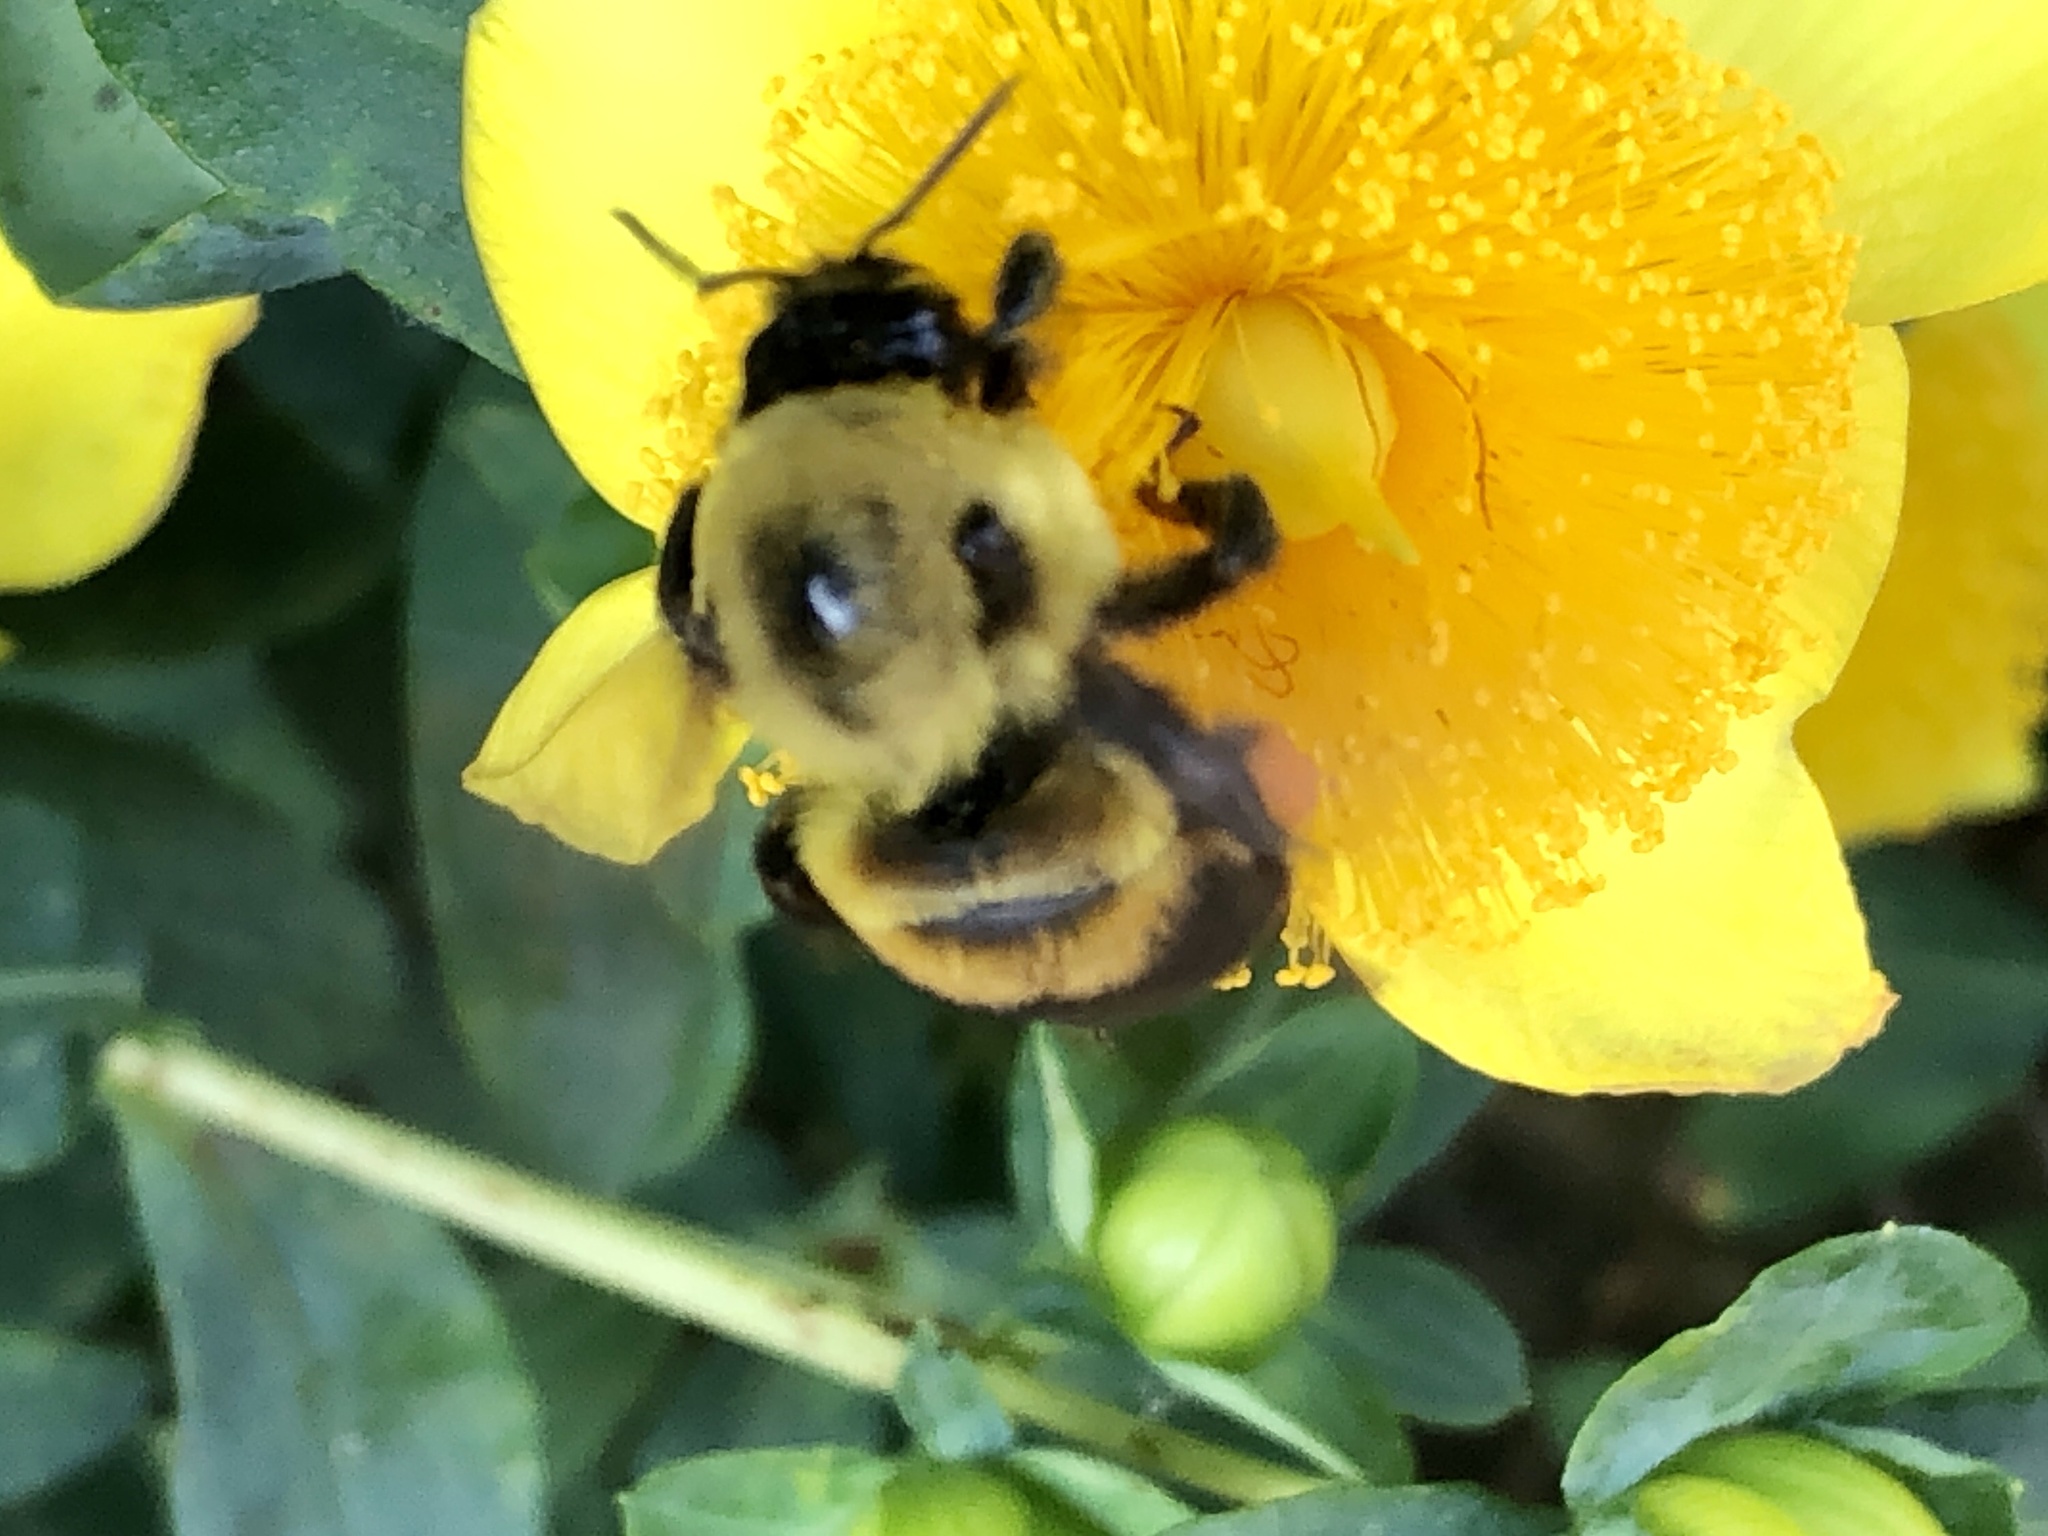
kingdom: Animalia
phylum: Arthropoda
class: Insecta
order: Hymenoptera
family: Apidae
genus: Bombus
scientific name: Bombus griseocollis
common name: Brown-belted bumble bee
